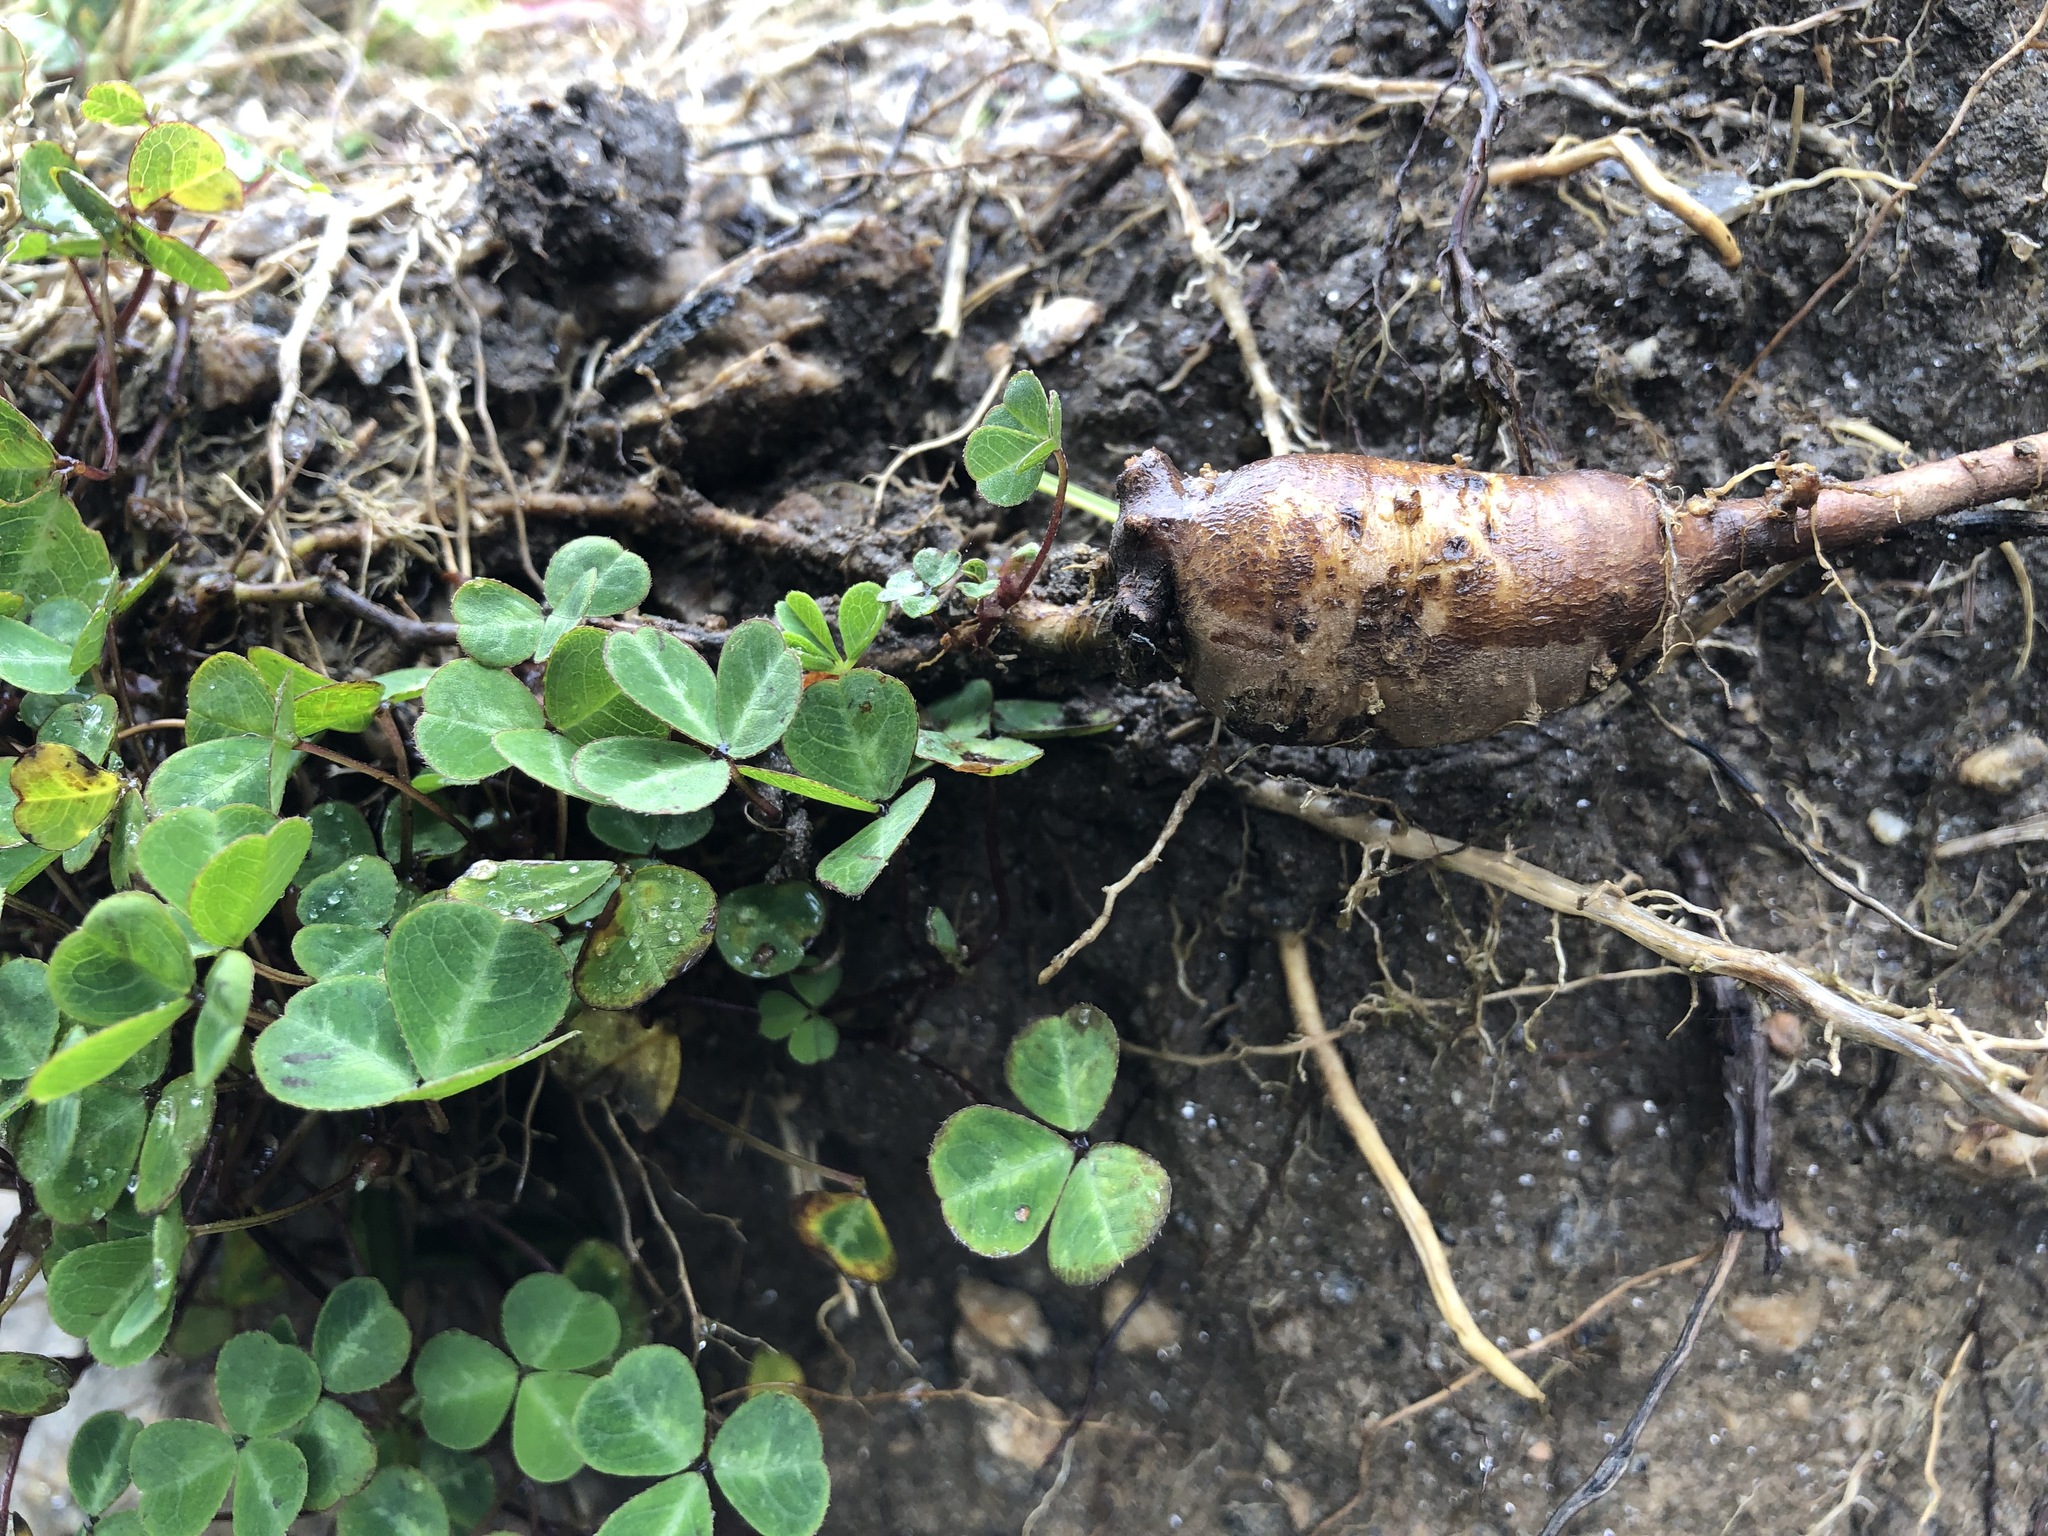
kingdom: Plantae
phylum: Tracheophyta
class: Magnoliopsida
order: Fabales
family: Fabaceae
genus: Parochetus
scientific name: Parochetus communis
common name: Blue oxalis
